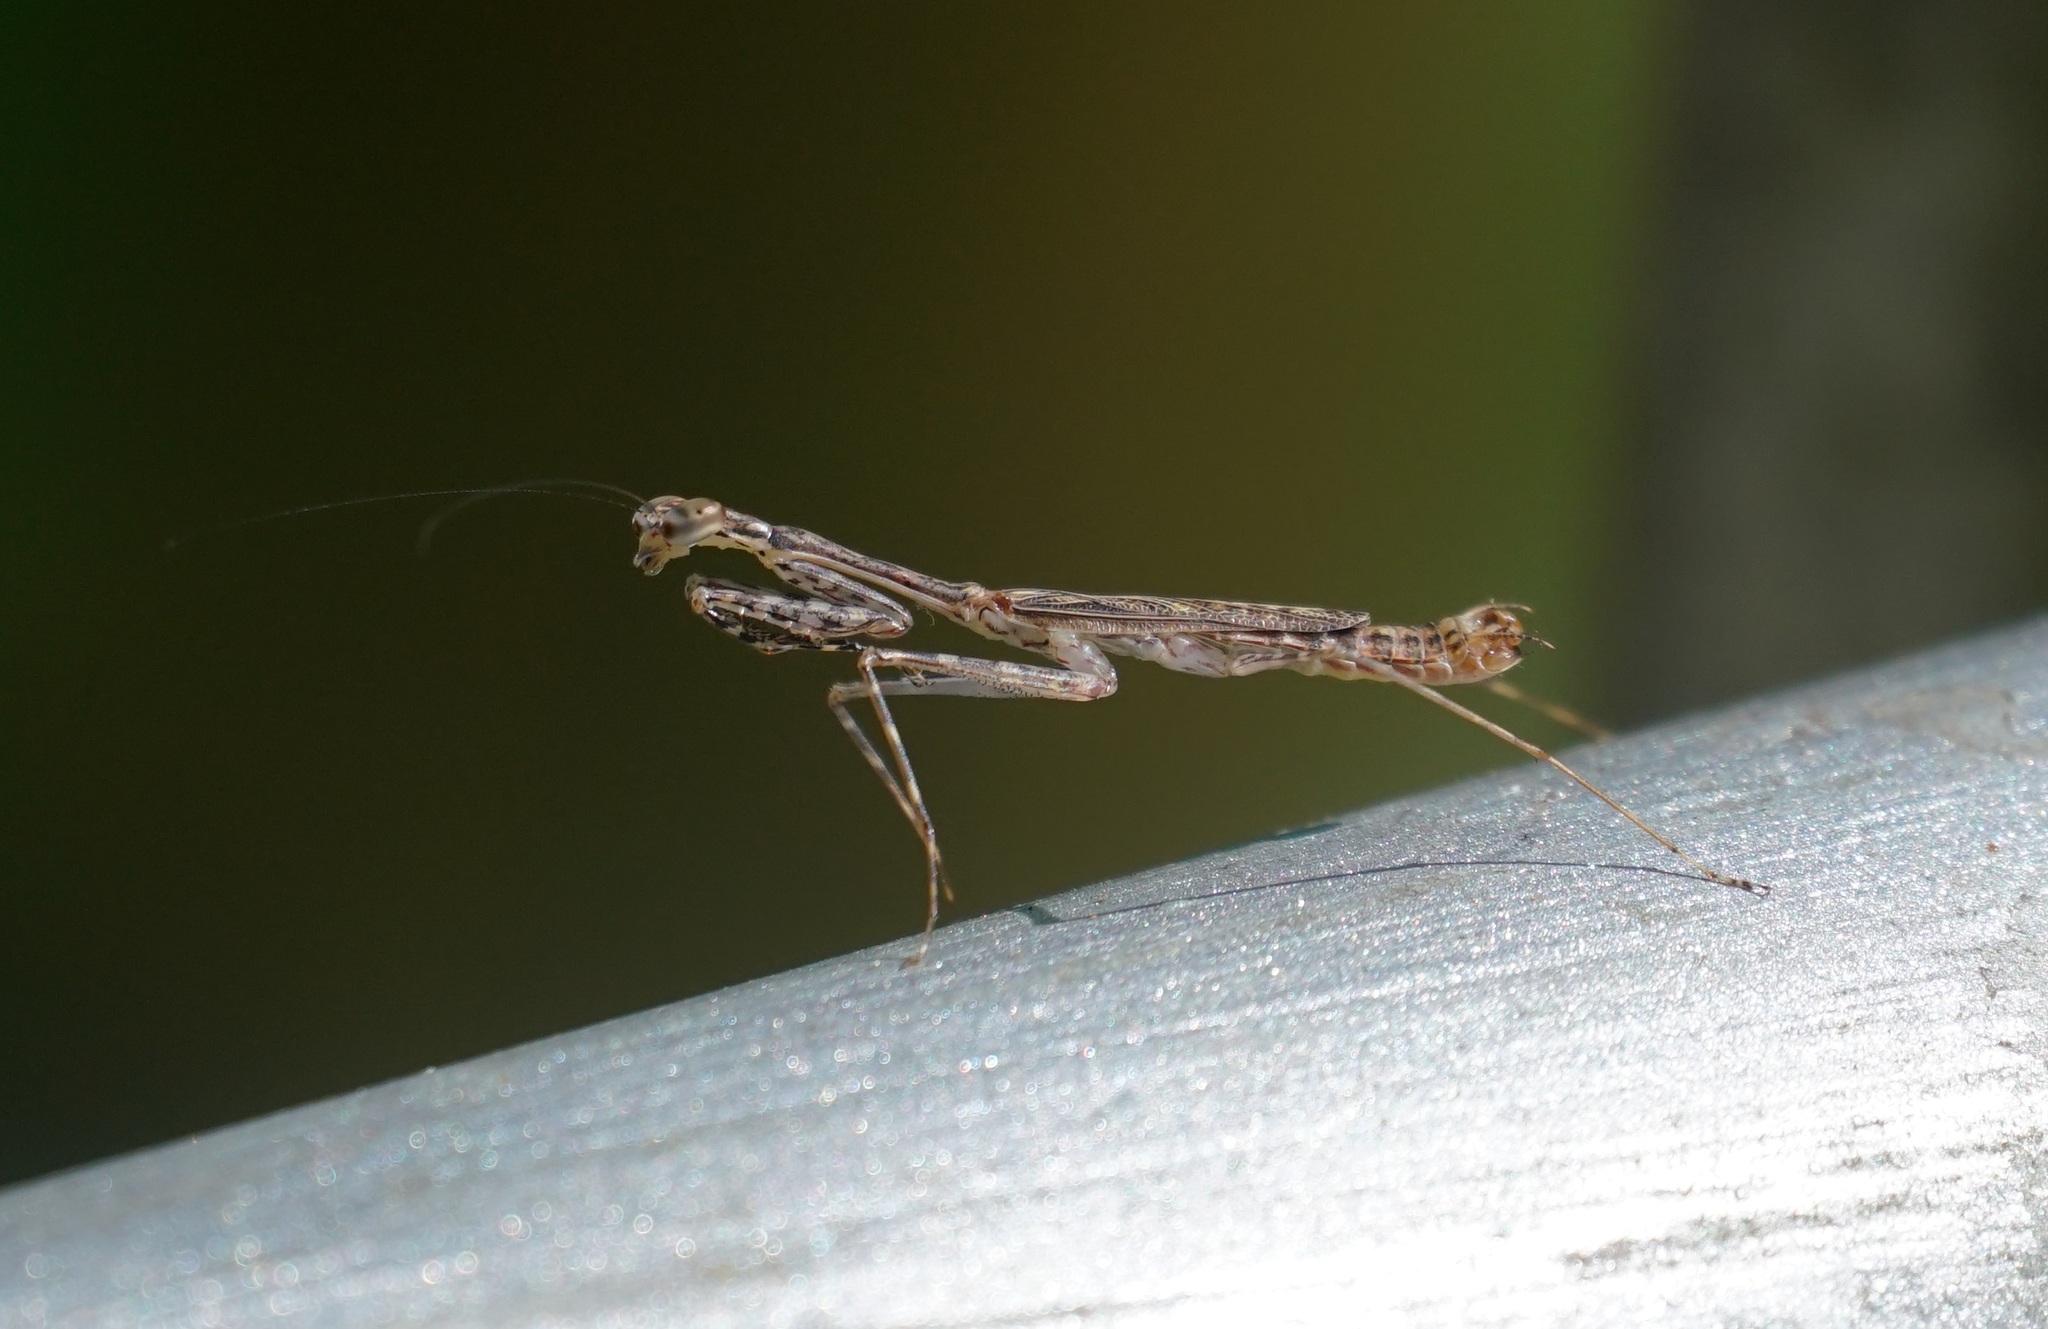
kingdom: Animalia
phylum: Arthropoda
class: Insecta
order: Mantodea
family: Nanomantidae
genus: Ciulfina
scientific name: Ciulfina rentzi
